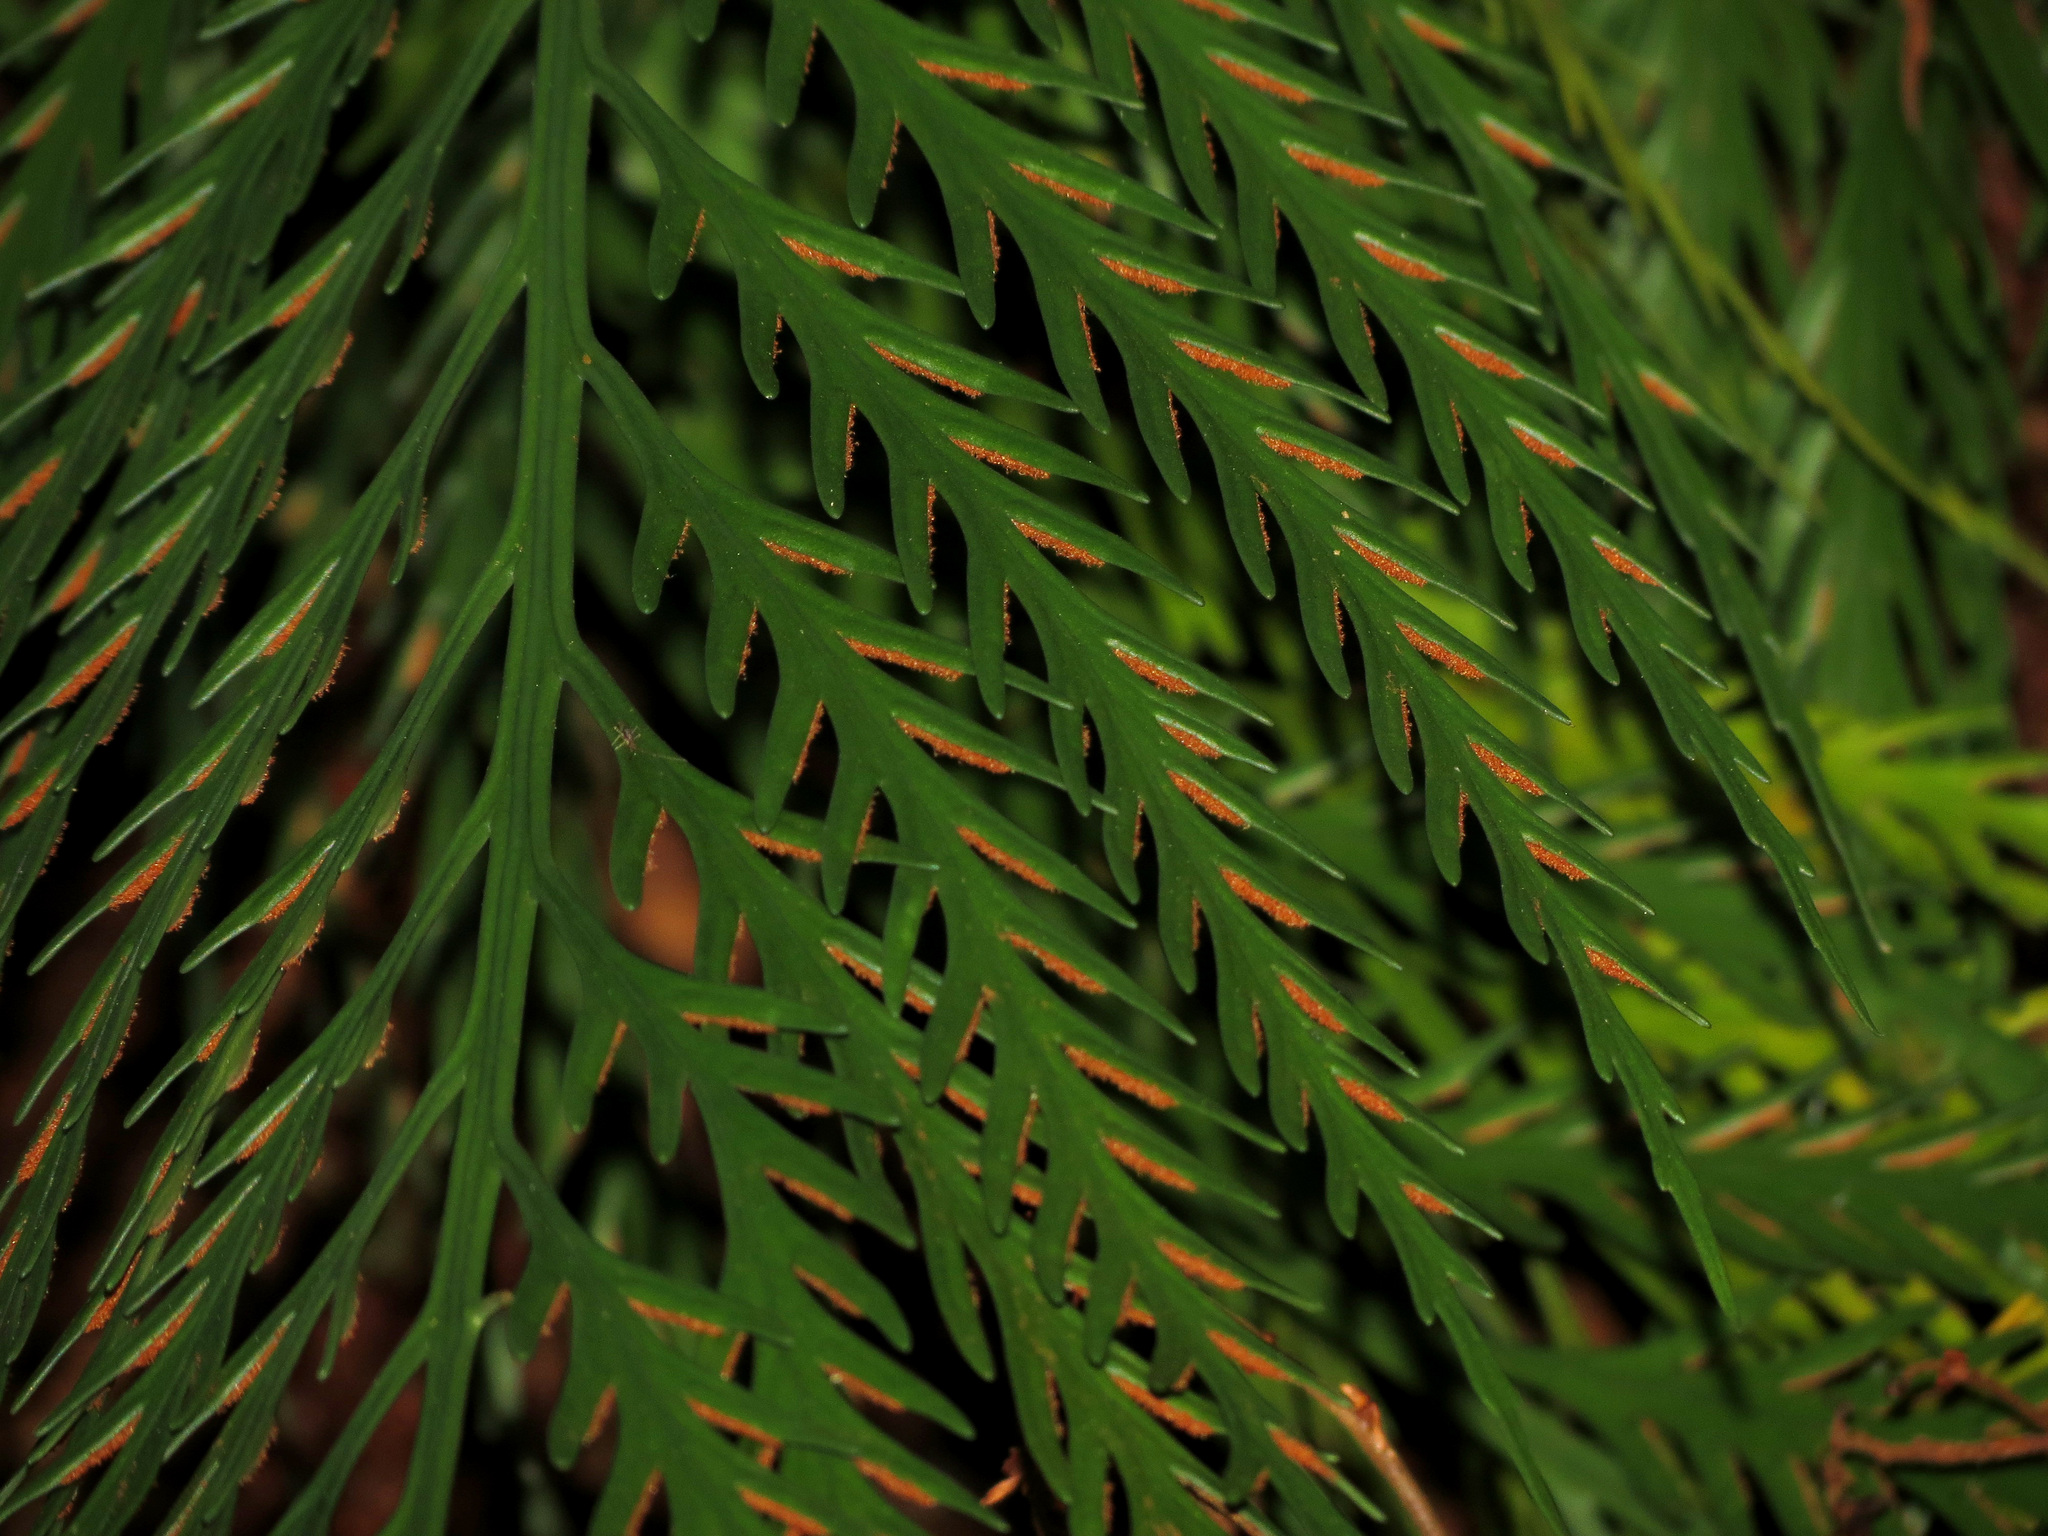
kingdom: Plantae
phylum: Tracheophyta
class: Polypodiopsida
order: Polypodiales
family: Aspleniaceae
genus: Asplenium
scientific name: Asplenium flaccidum
